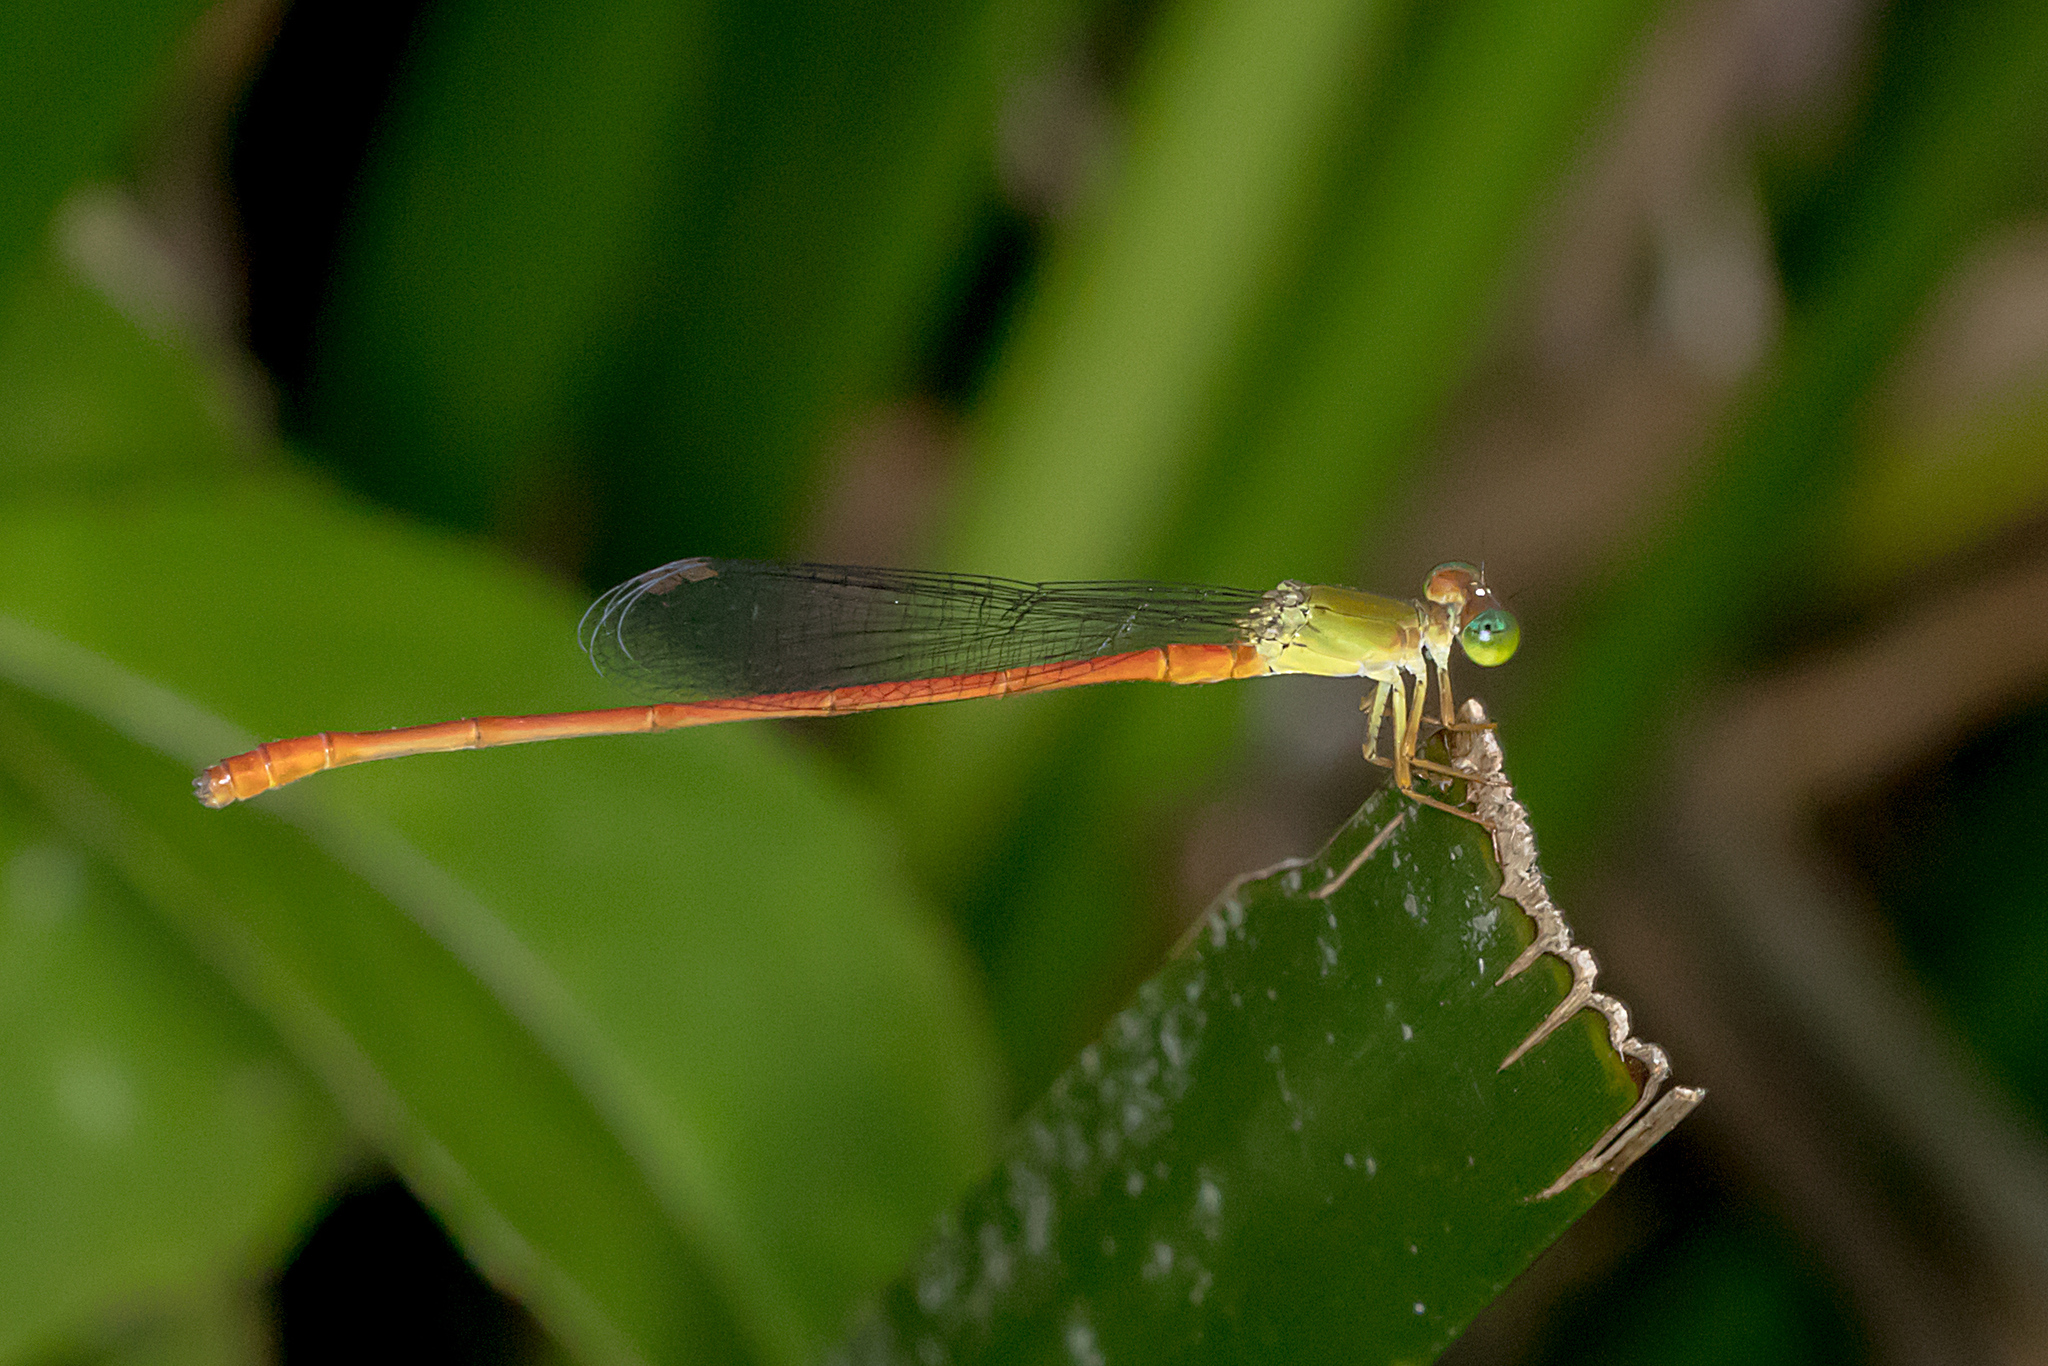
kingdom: Animalia
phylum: Arthropoda
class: Insecta
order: Odonata
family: Coenagrionidae
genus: Ceriagrion
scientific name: Ceriagrion aeruginosum
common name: Redtail
